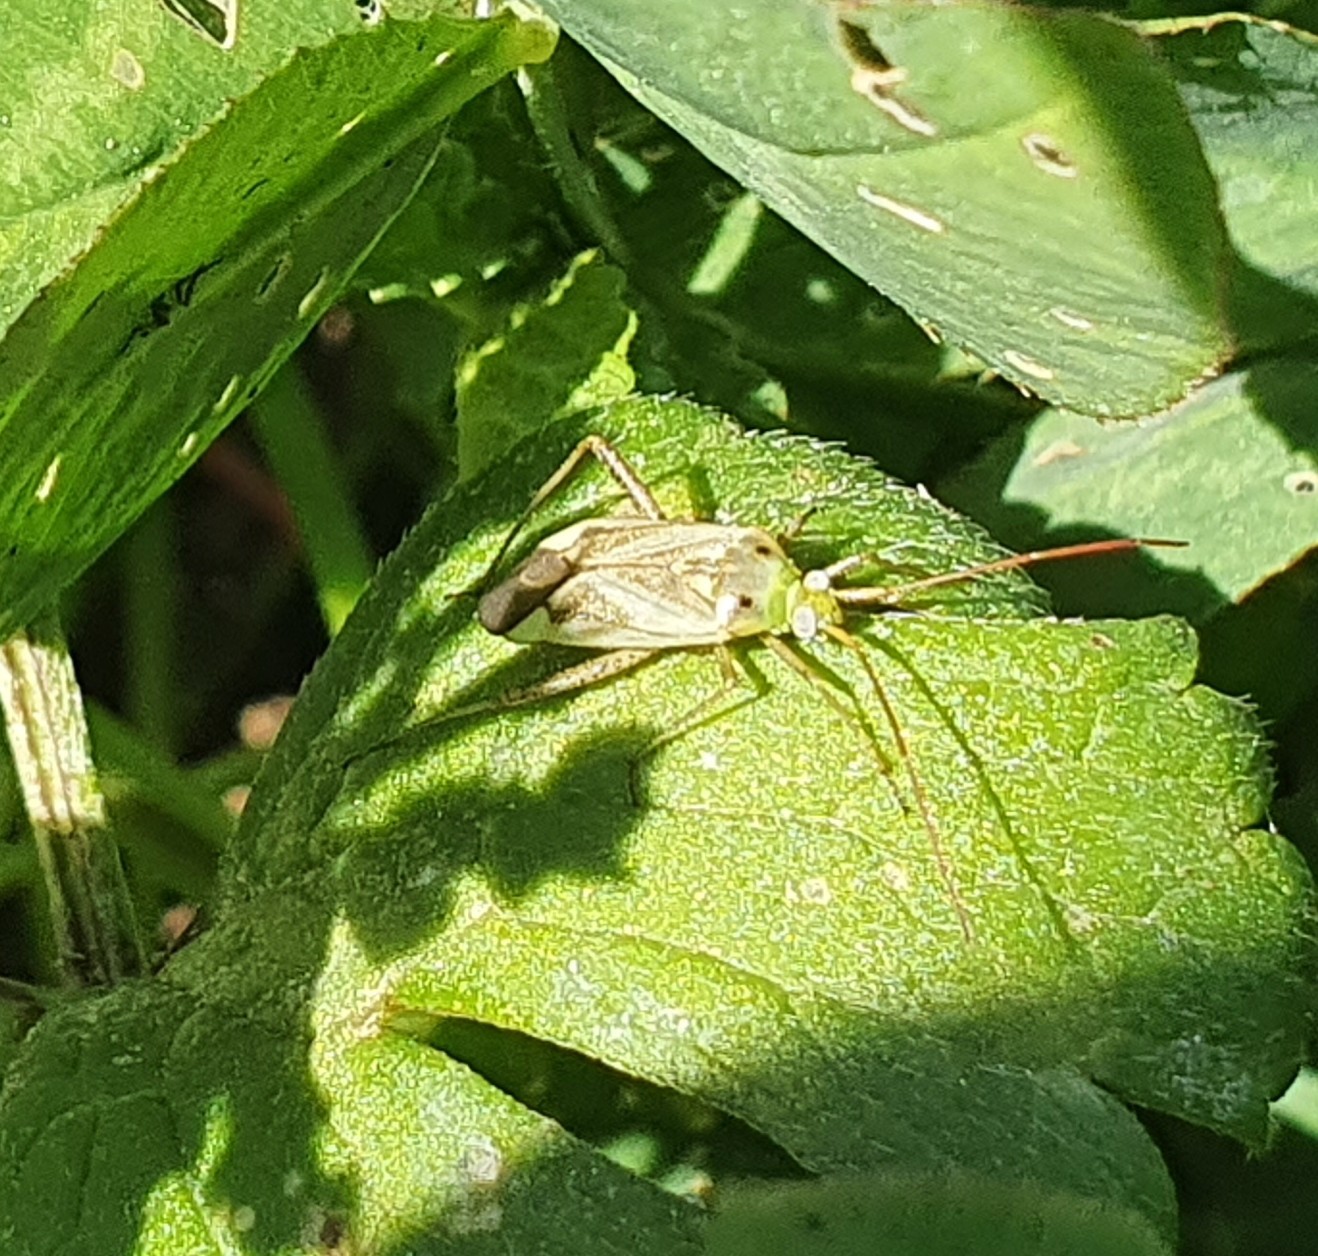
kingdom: Animalia
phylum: Arthropoda
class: Insecta
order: Hemiptera
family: Miridae
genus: Adelphocoris
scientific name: Adelphocoris lineolatus
